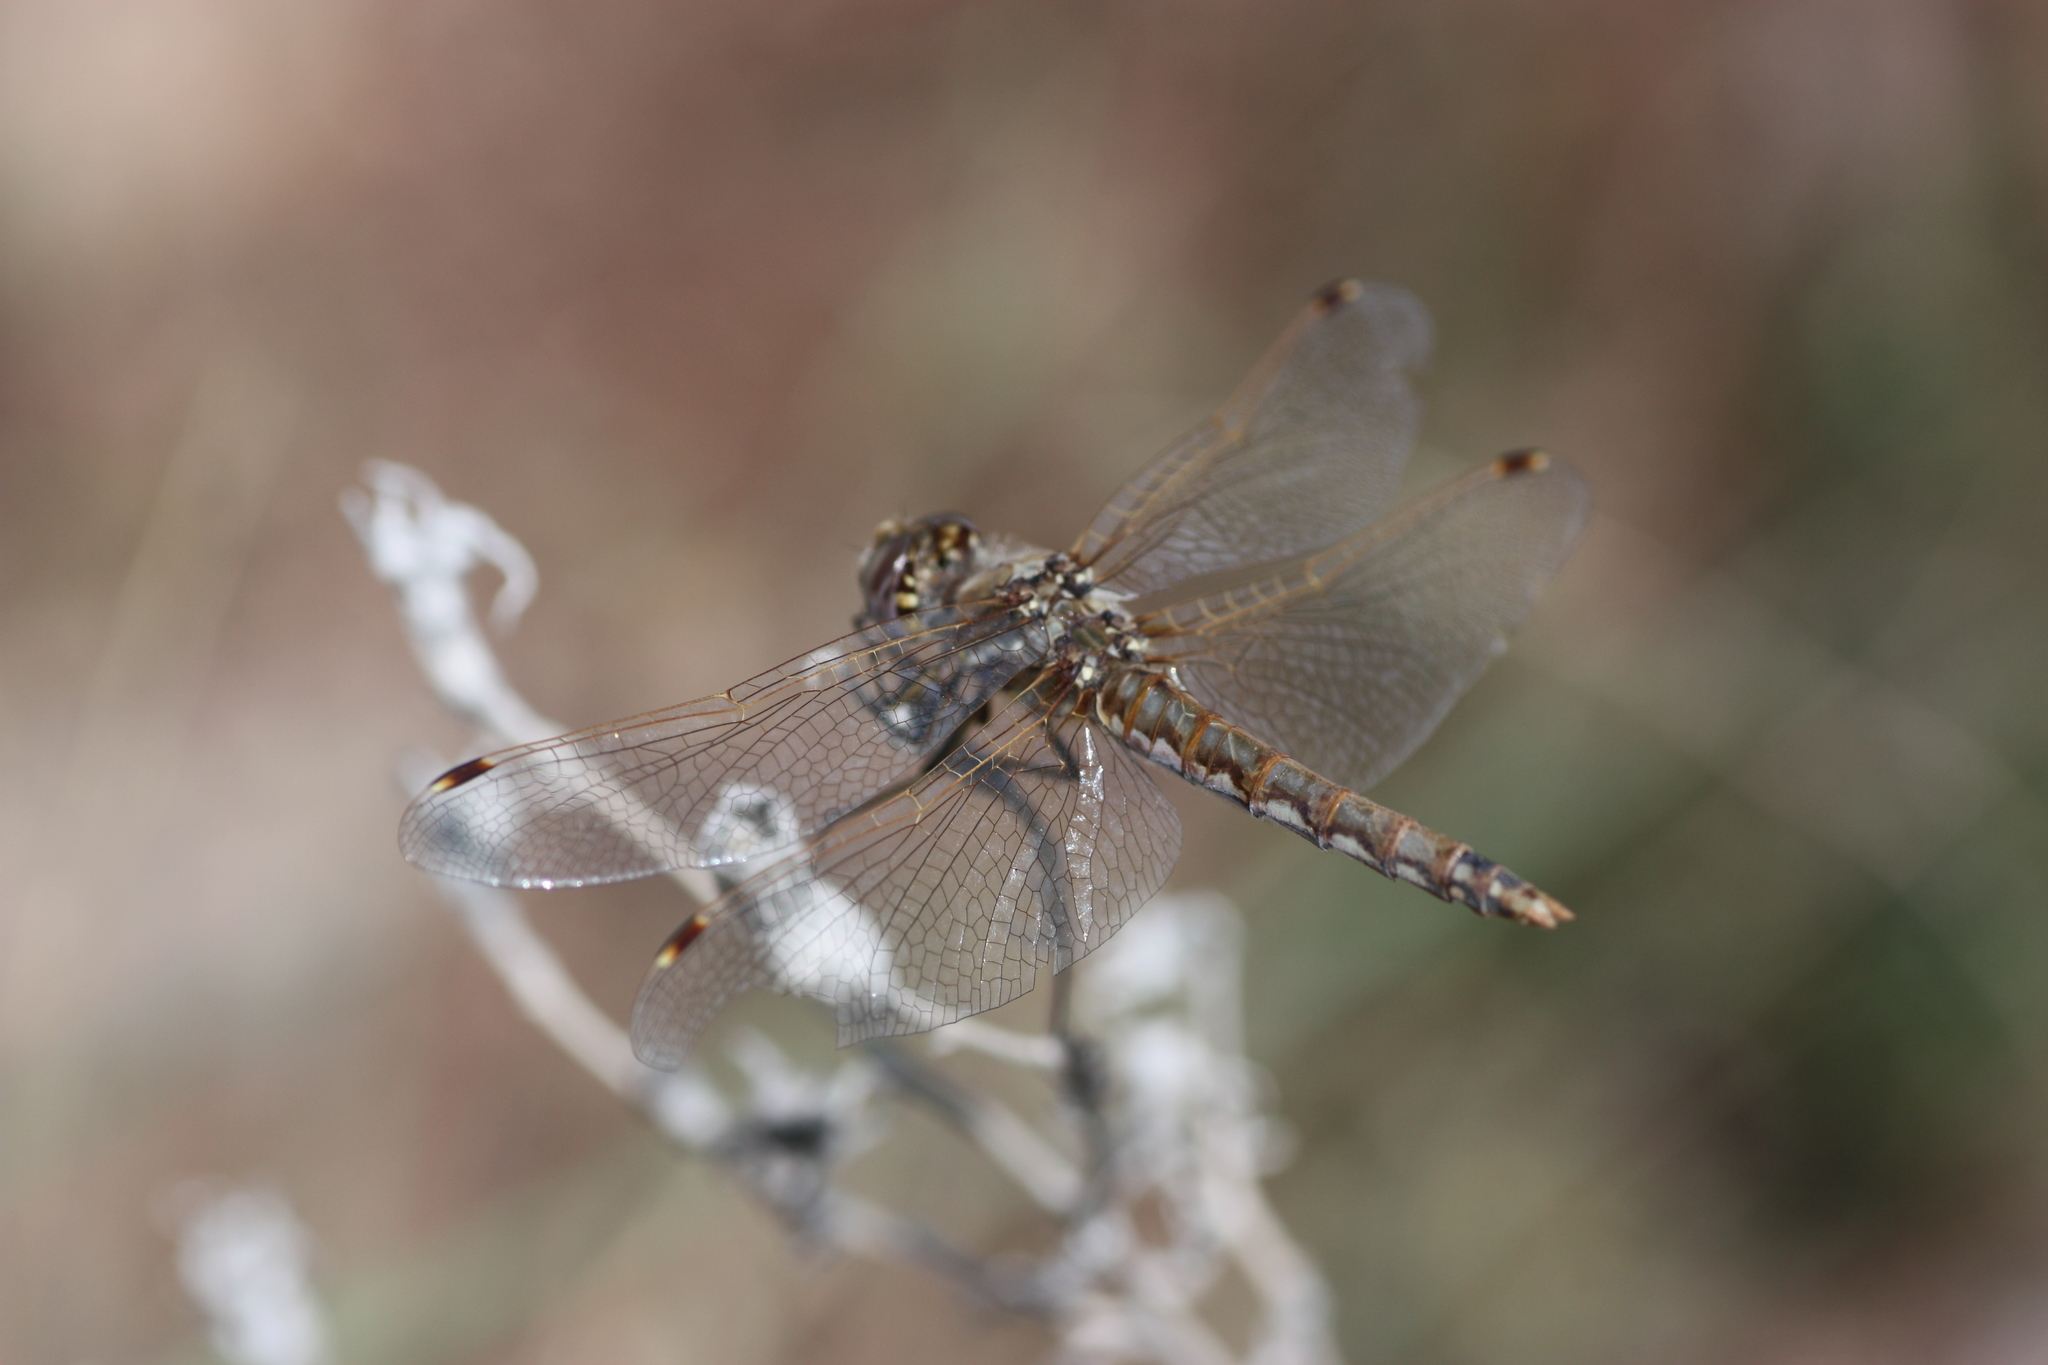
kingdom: Animalia
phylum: Arthropoda
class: Insecta
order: Odonata
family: Libellulidae
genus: Sympetrum
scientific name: Sympetrum corruptum
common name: Variegated meadowhawk
